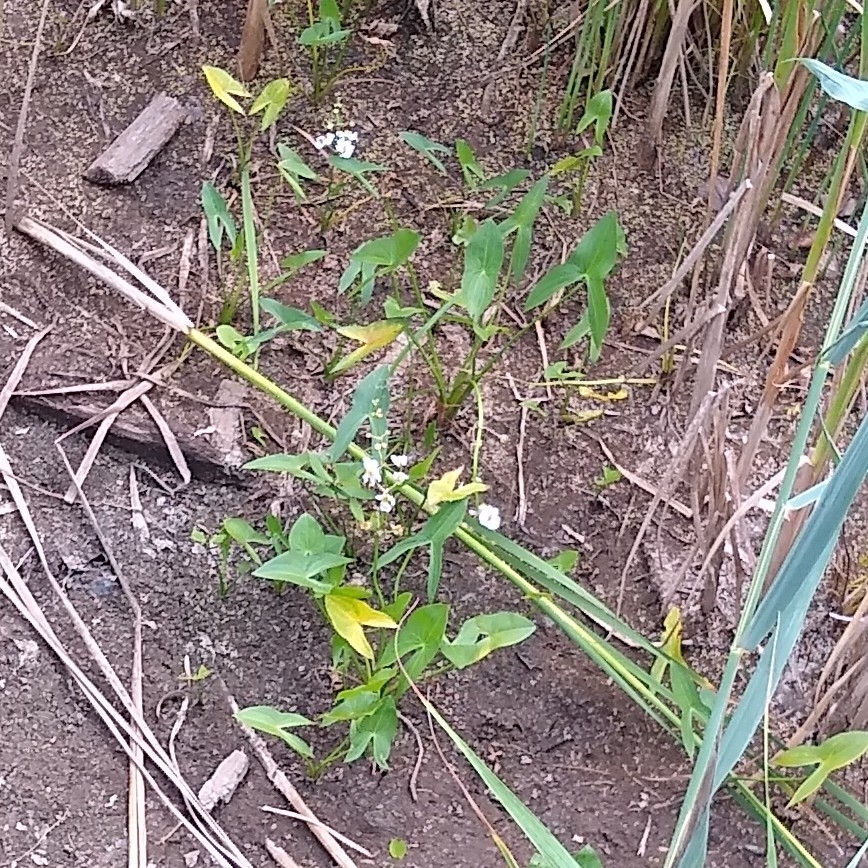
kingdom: Plantae
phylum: Tracheophyta
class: Liliopsida
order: Alismatales
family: Alismataceae
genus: Sagittaria
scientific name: Sagittaria latifolia
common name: Duck-potato
